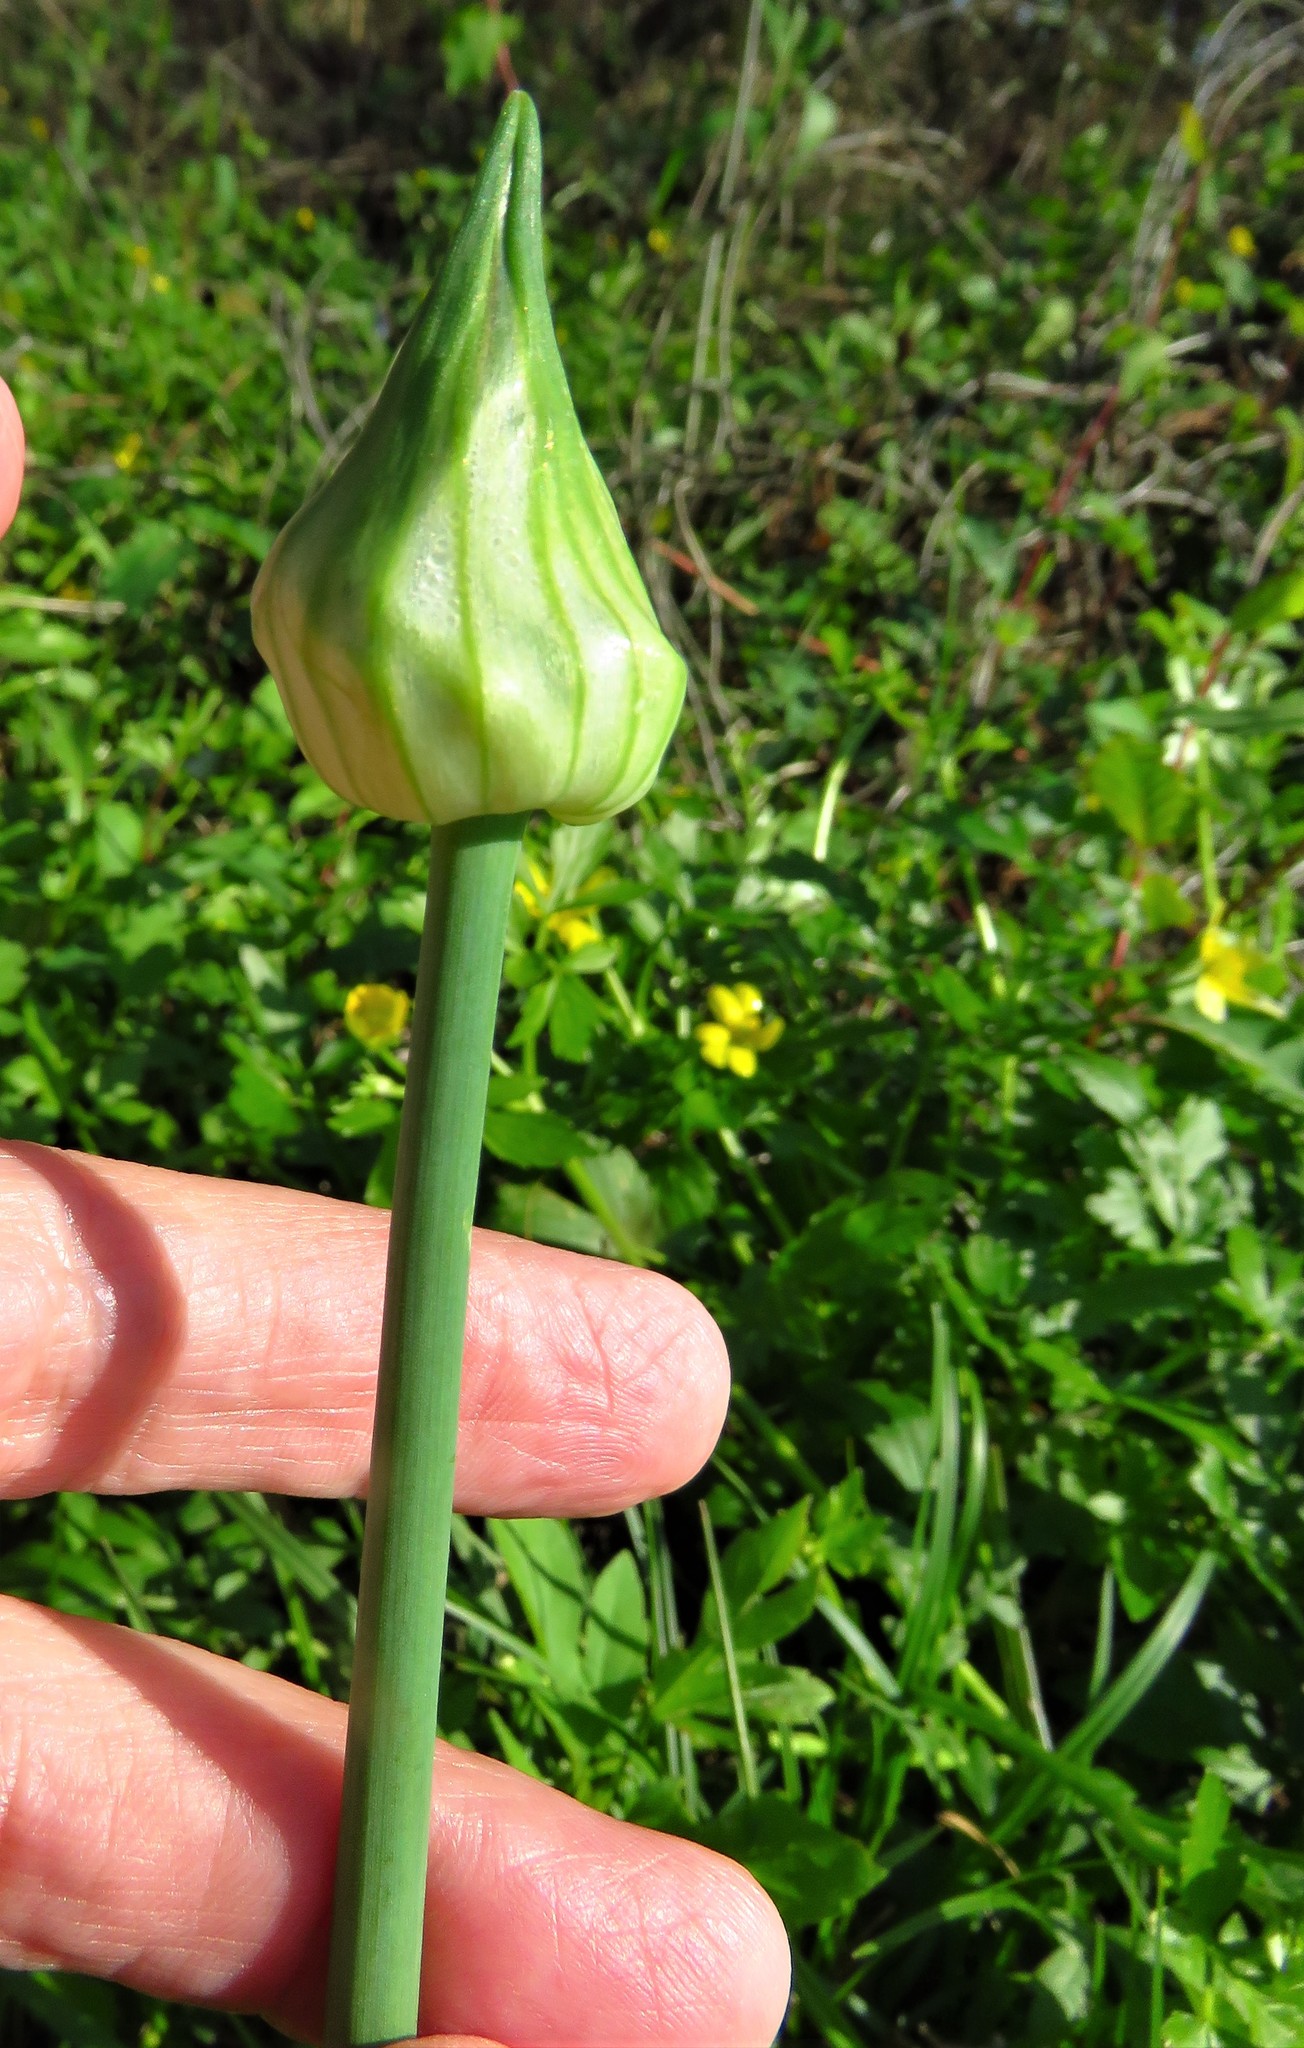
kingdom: Plantae
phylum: Tracheophyta
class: Liliopsida
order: Asparagales
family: Amaryllidaceae
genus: Allium
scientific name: Allium canadense
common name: Meadow garlic
